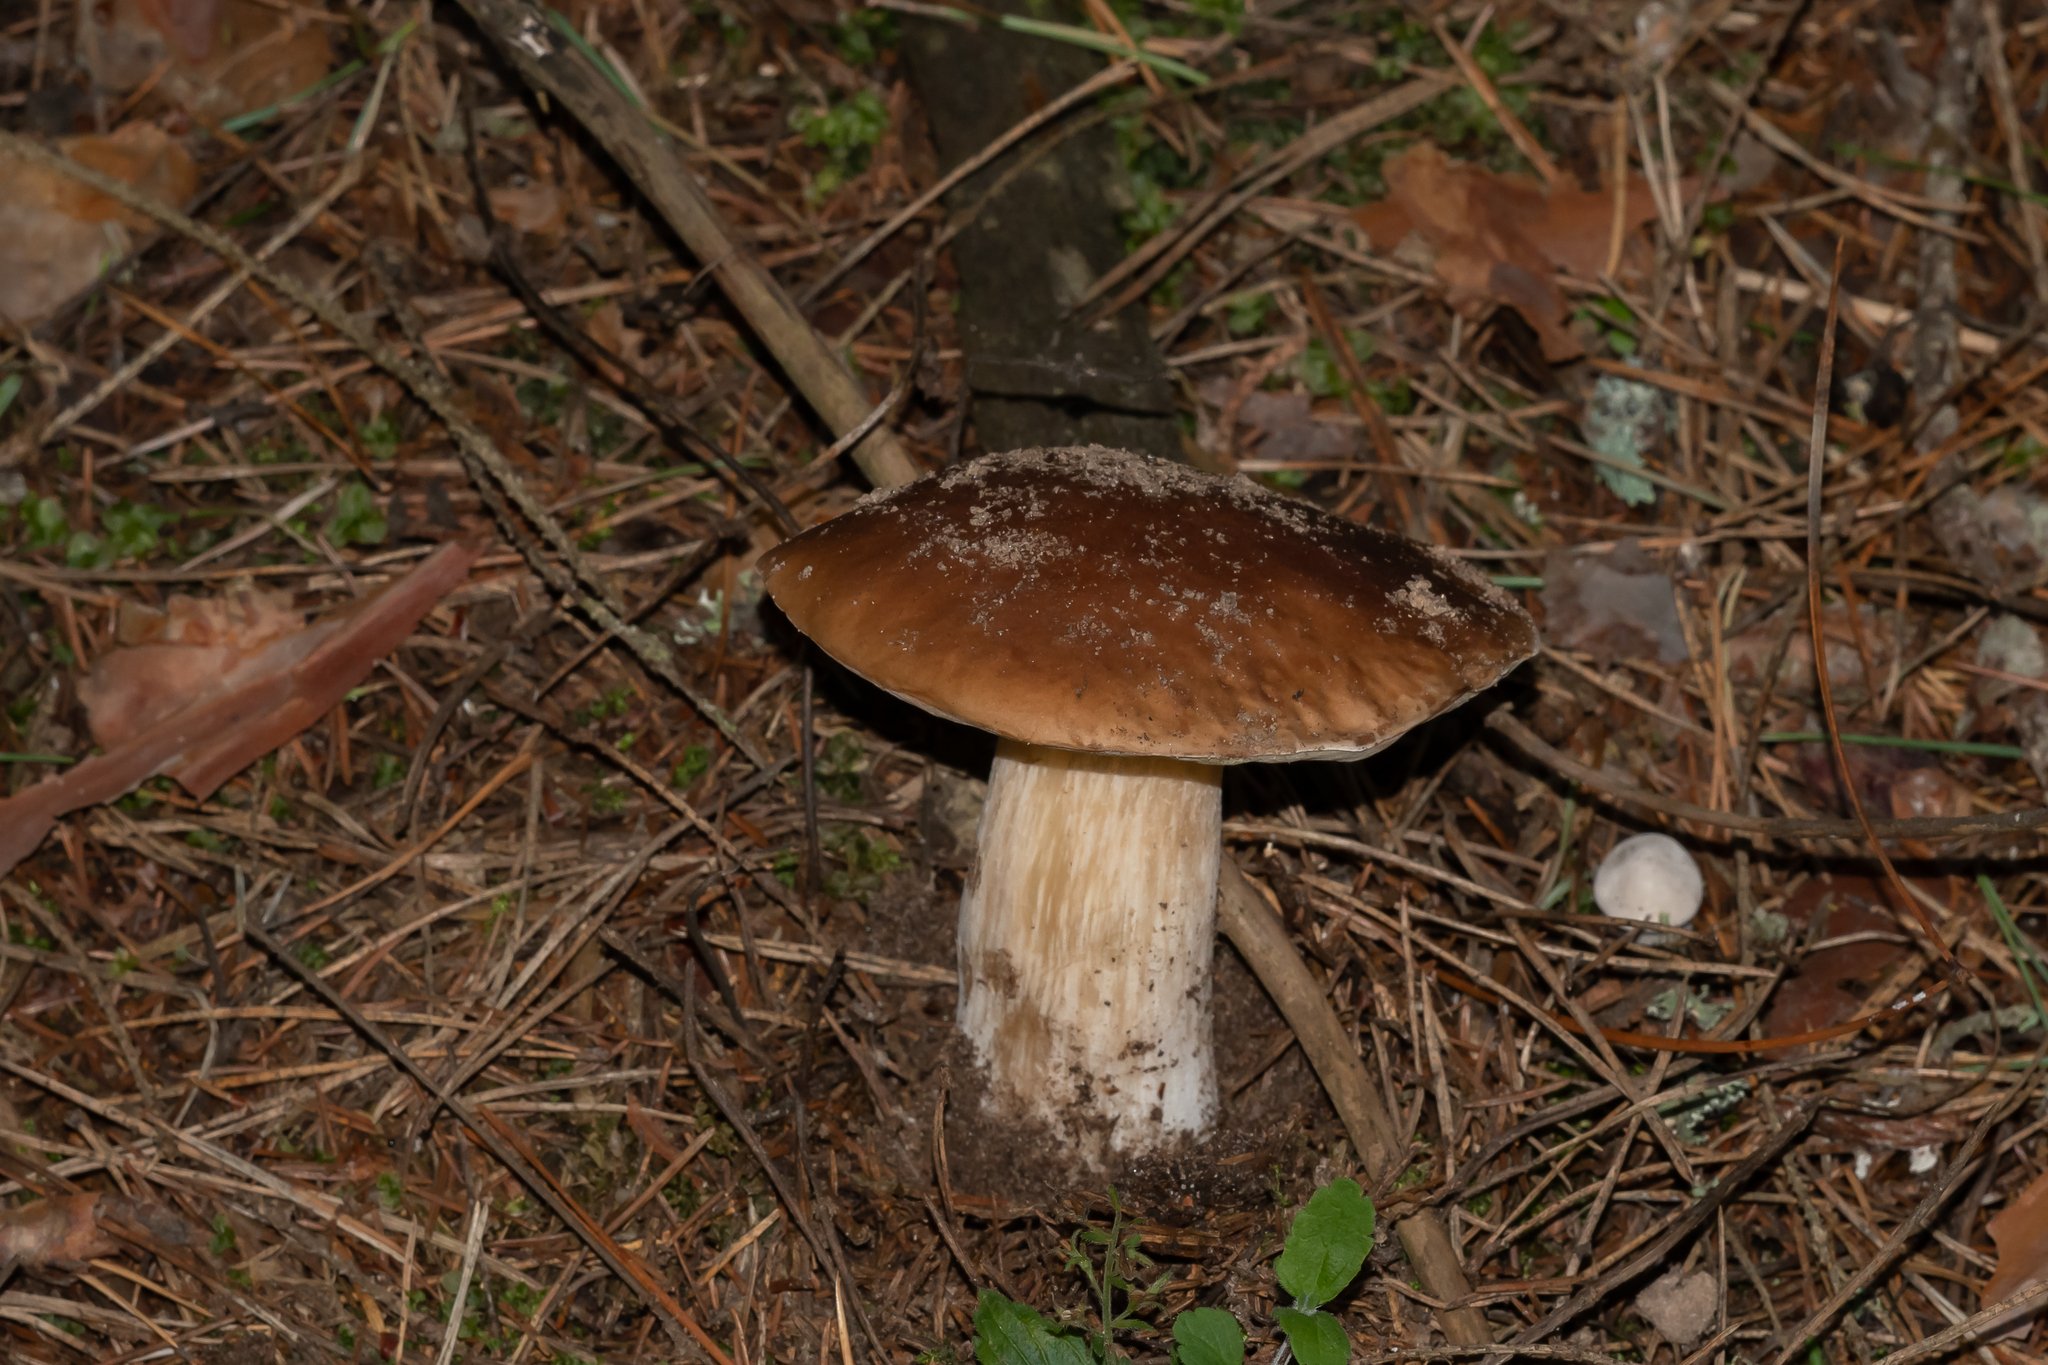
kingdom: Fungi
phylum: Basidiomycota
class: Agaricomycetes
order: Boletales
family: Boletaceae
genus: Boletus
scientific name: Boletus edulis
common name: Cep
